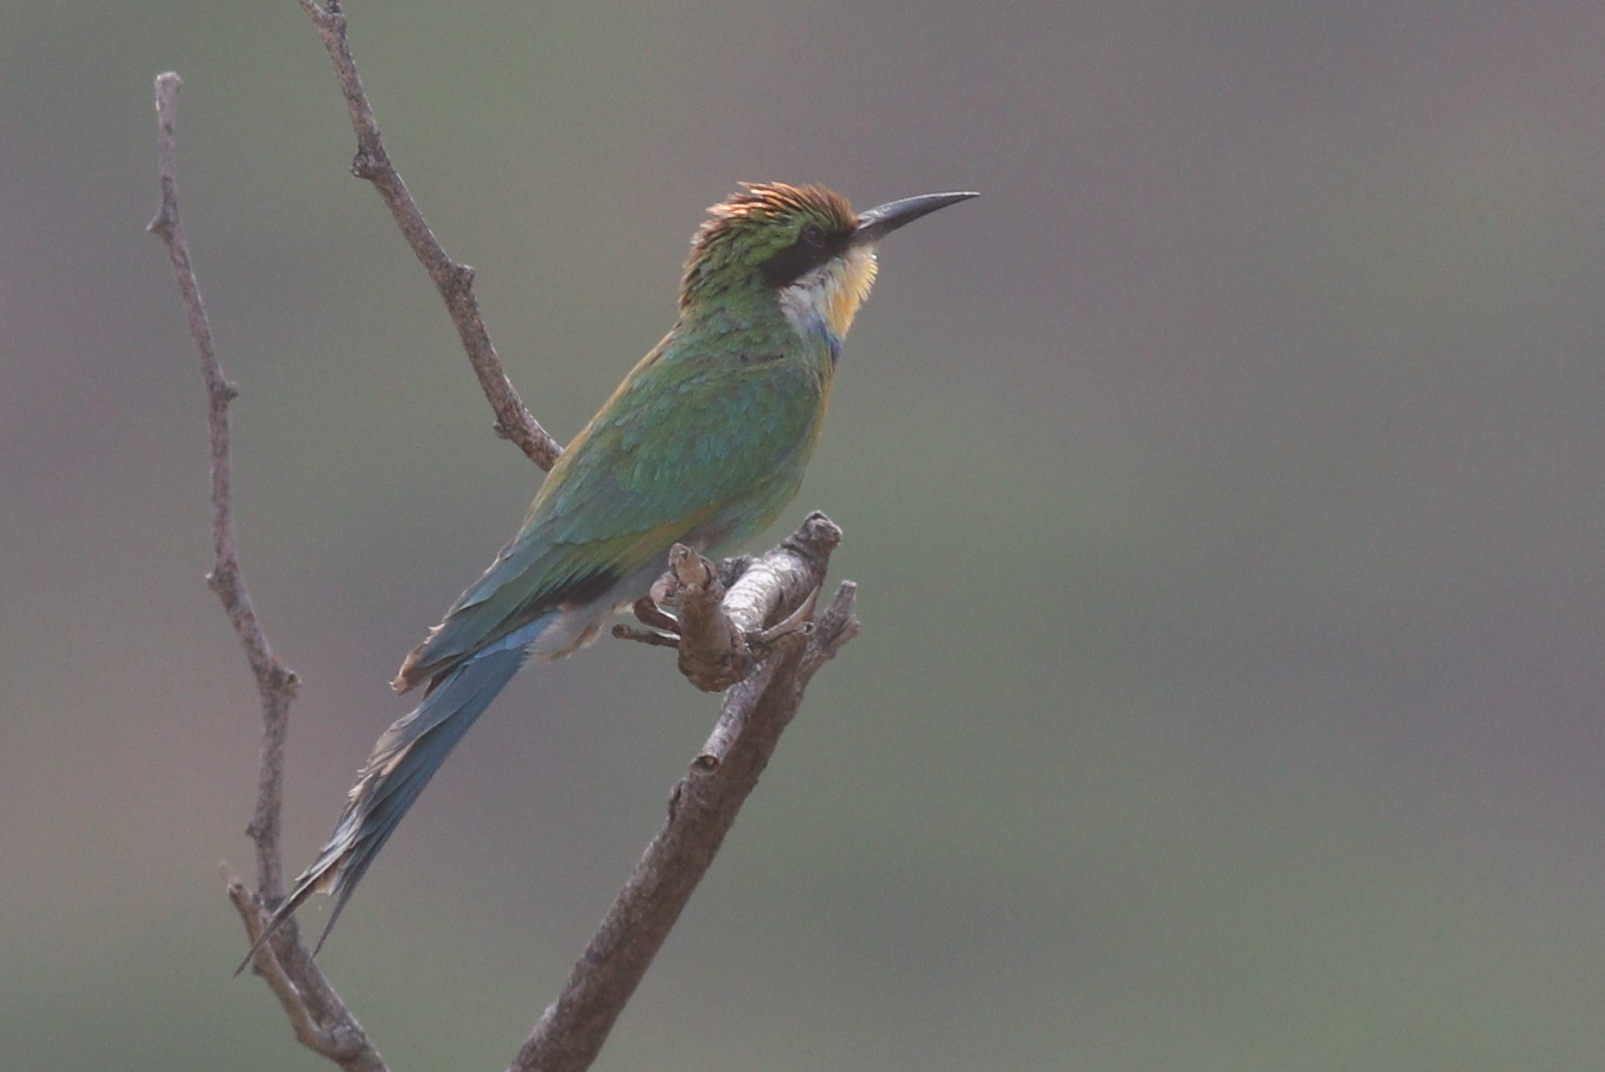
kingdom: Animalia
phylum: Chordata
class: Aves
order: Coraciiformes
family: Meropidae
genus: Merops
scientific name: Merops hirundineus
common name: Swallow-tailed bee-eater
